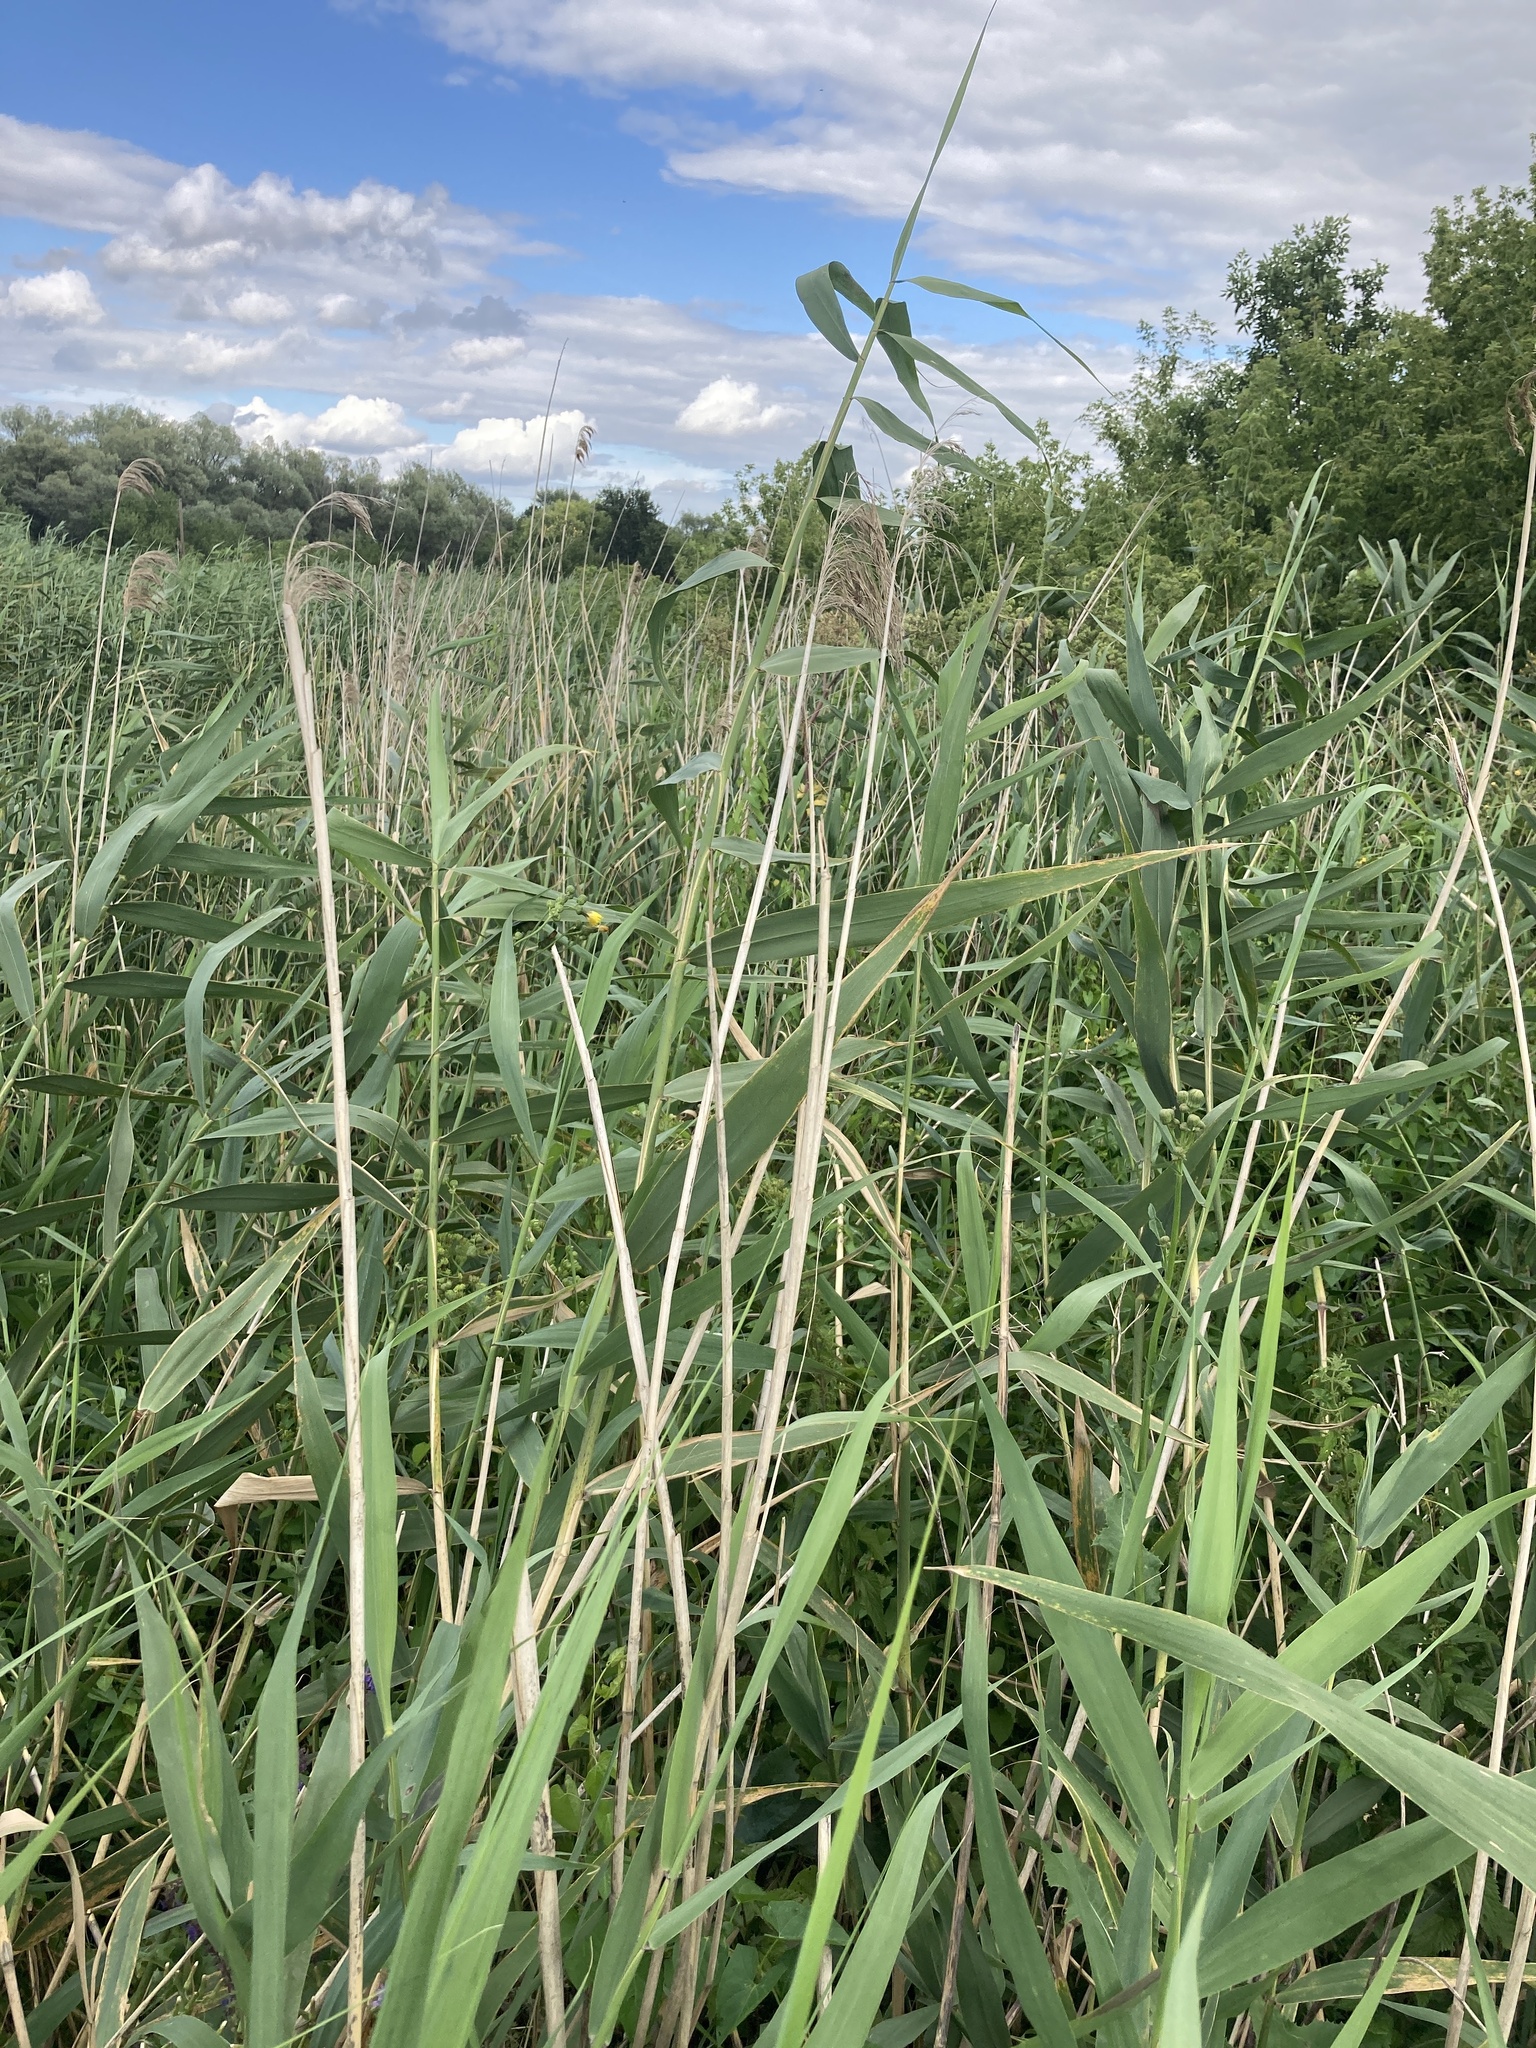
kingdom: Plantae
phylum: Tracheophyta
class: Liliopsida
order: Poales
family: Poaceae
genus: Phragmites
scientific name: Phragmites australis
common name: Common reed
